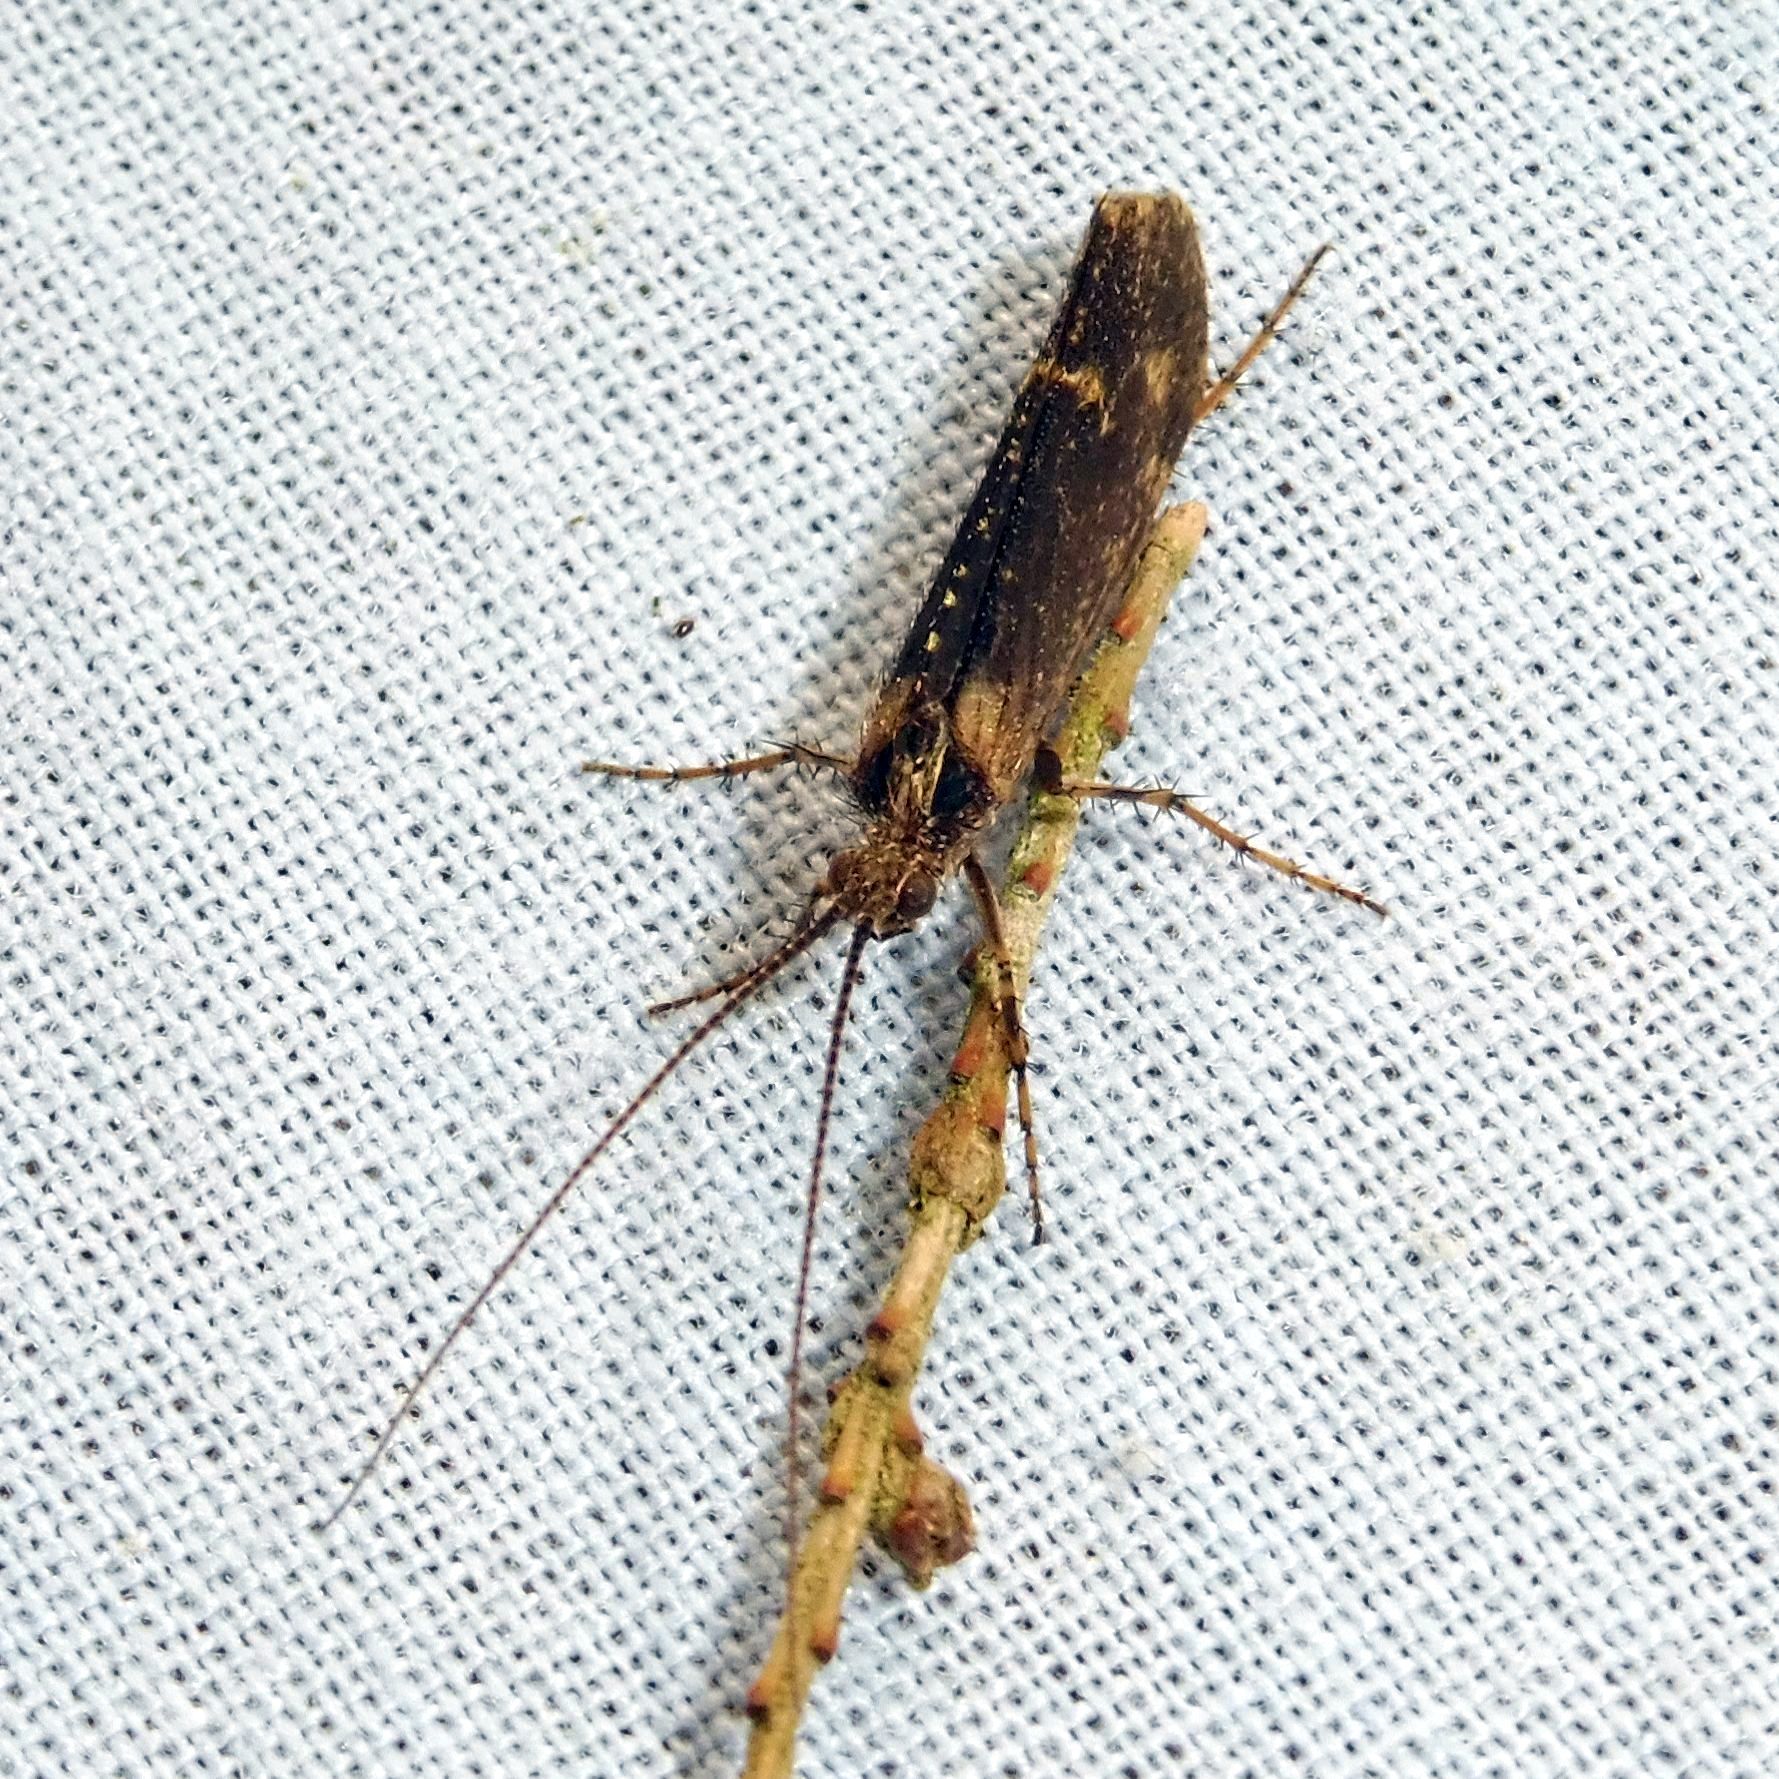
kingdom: Animalia
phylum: Arthropoda
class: Insecta
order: Trichoptera
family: Limnephilidae
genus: Limnephilus
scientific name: Limnephilus sparsus
